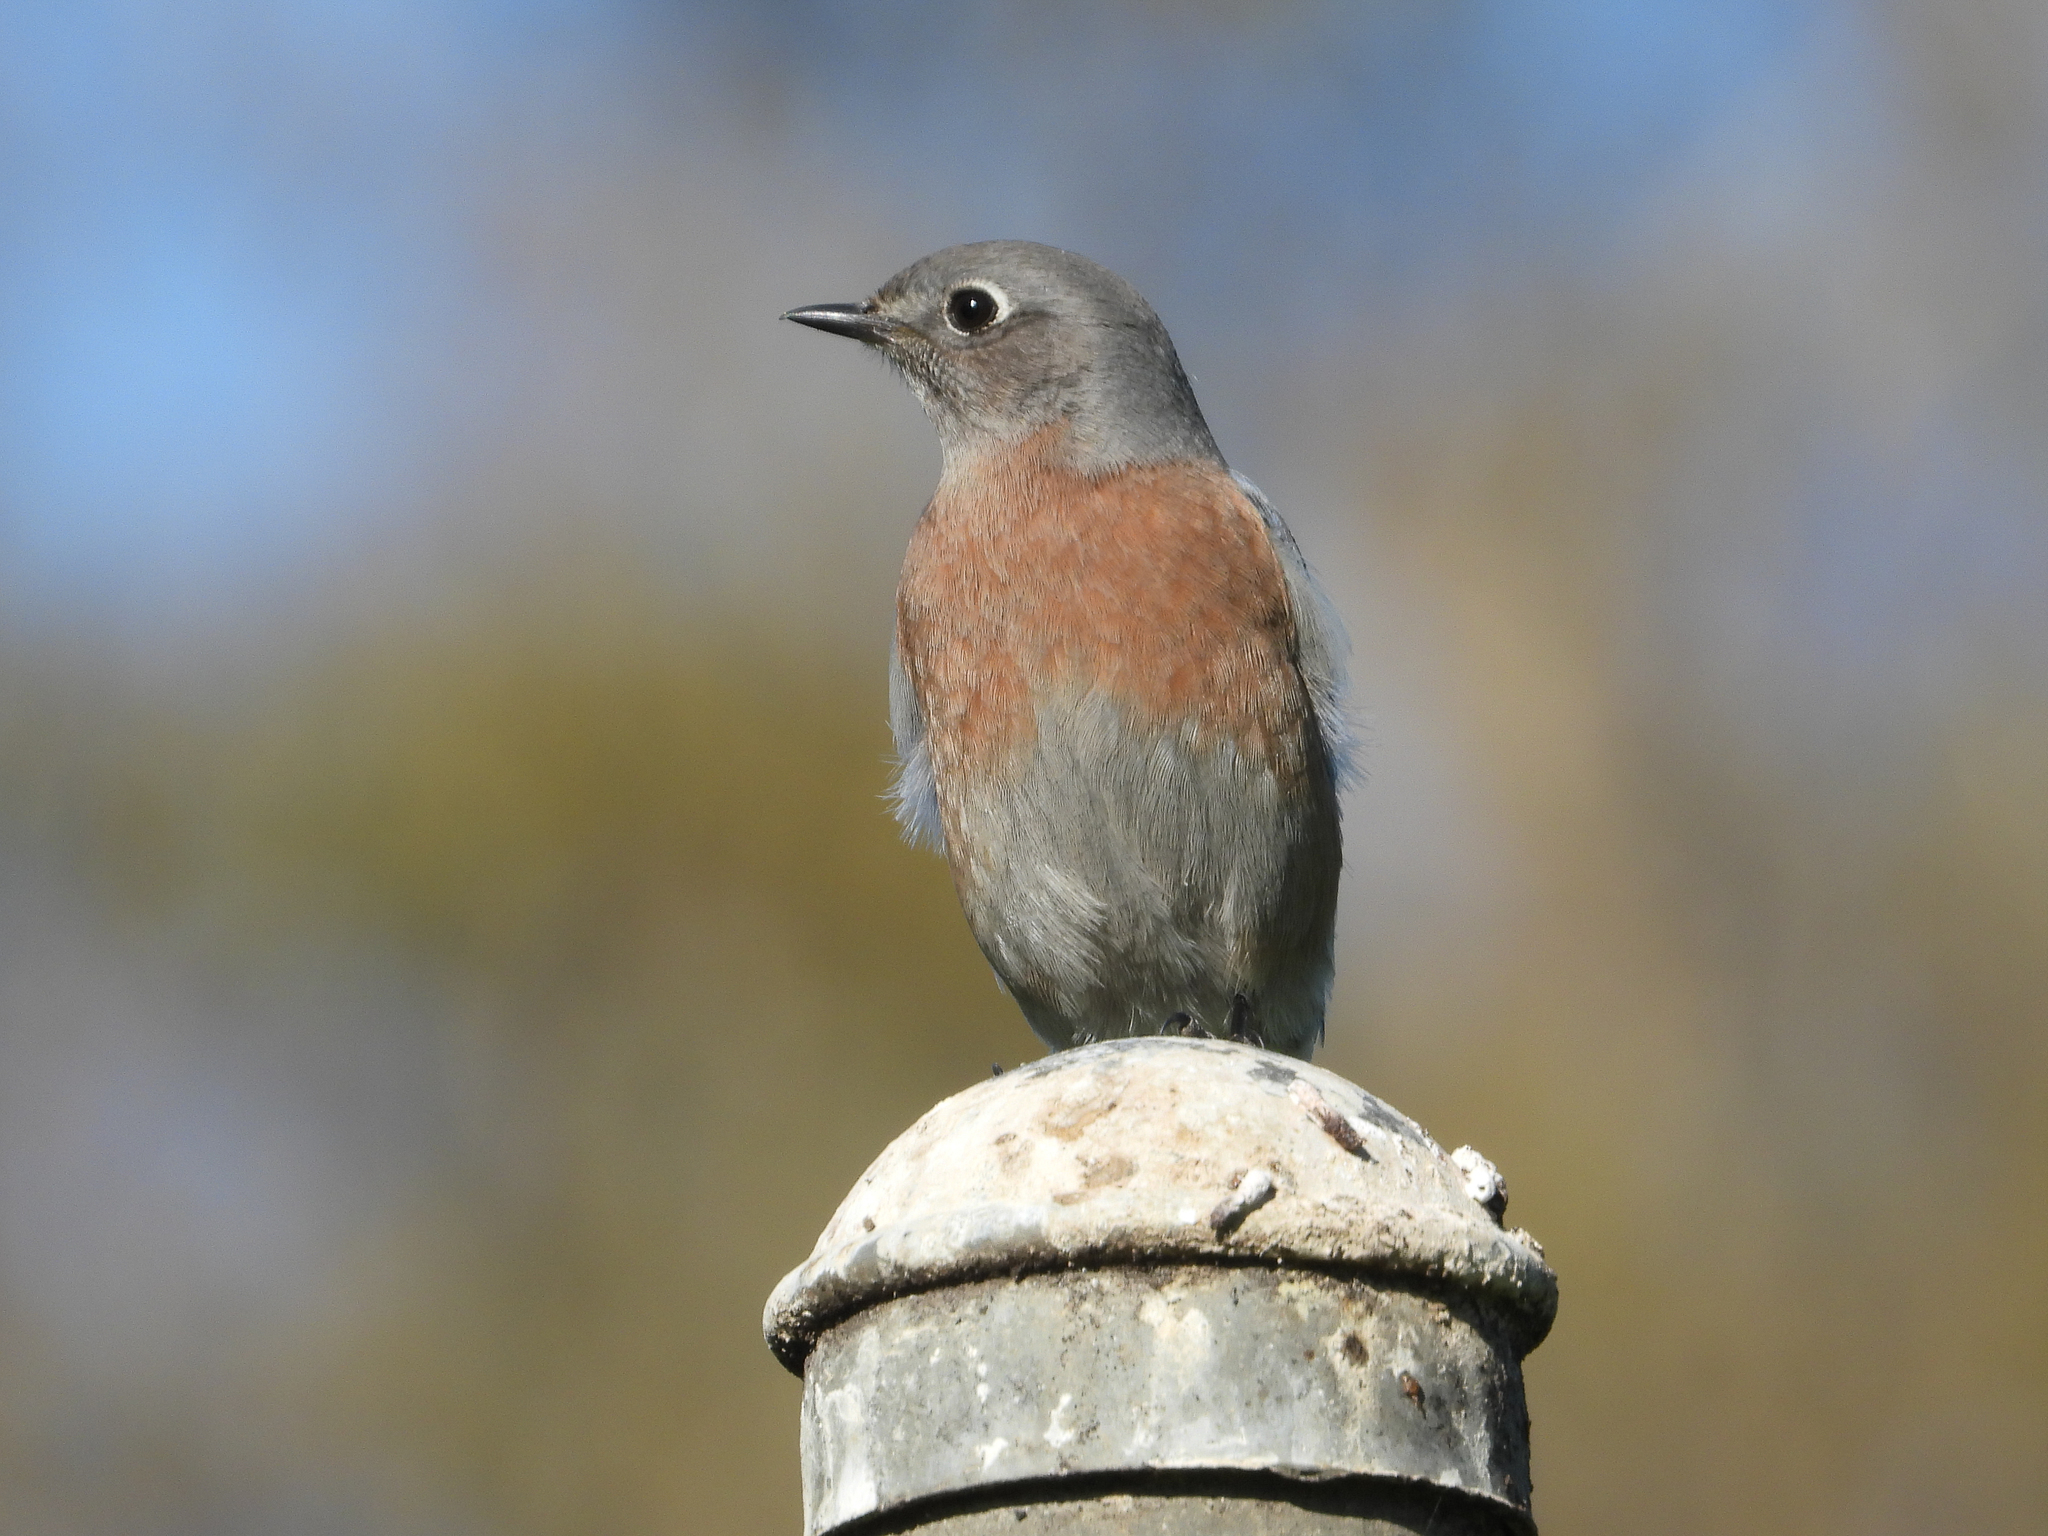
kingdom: Animalia
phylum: Chordata
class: Aves
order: Passeriformes
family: Turdidae
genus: Sialia
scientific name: Sialia mexicana
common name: Western bluebird
